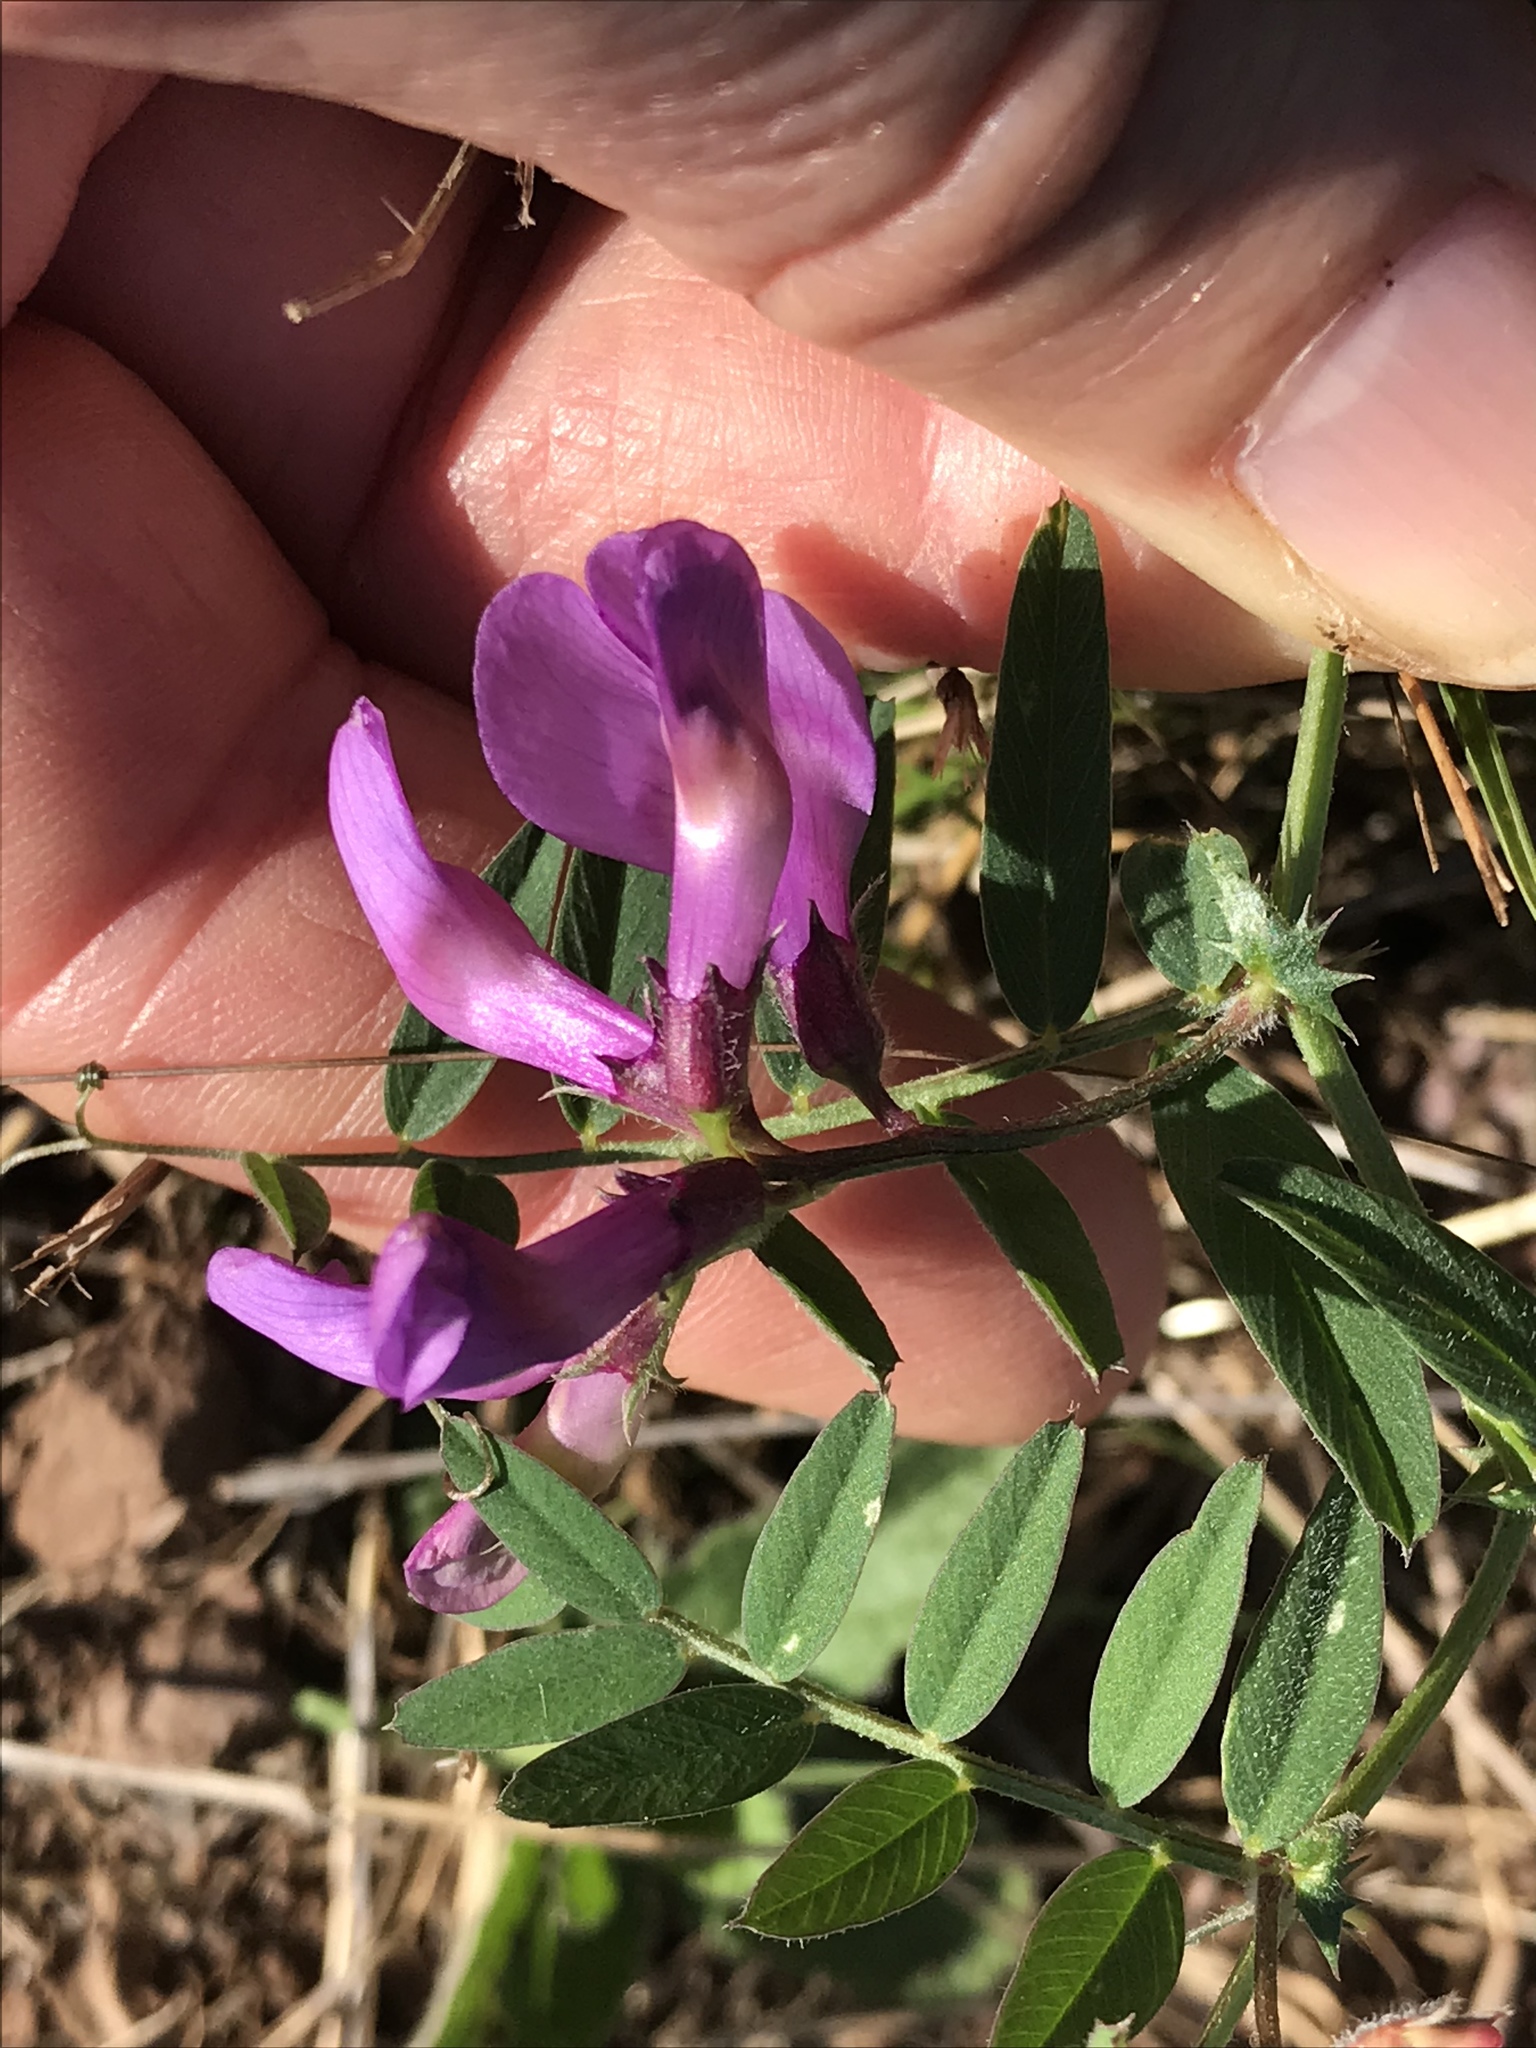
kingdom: Plantae
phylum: Tracheophyta
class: Magnoliopsida
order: Fabales
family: Fabaceae
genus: Vicia
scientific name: Vicia americana
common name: American vetch
